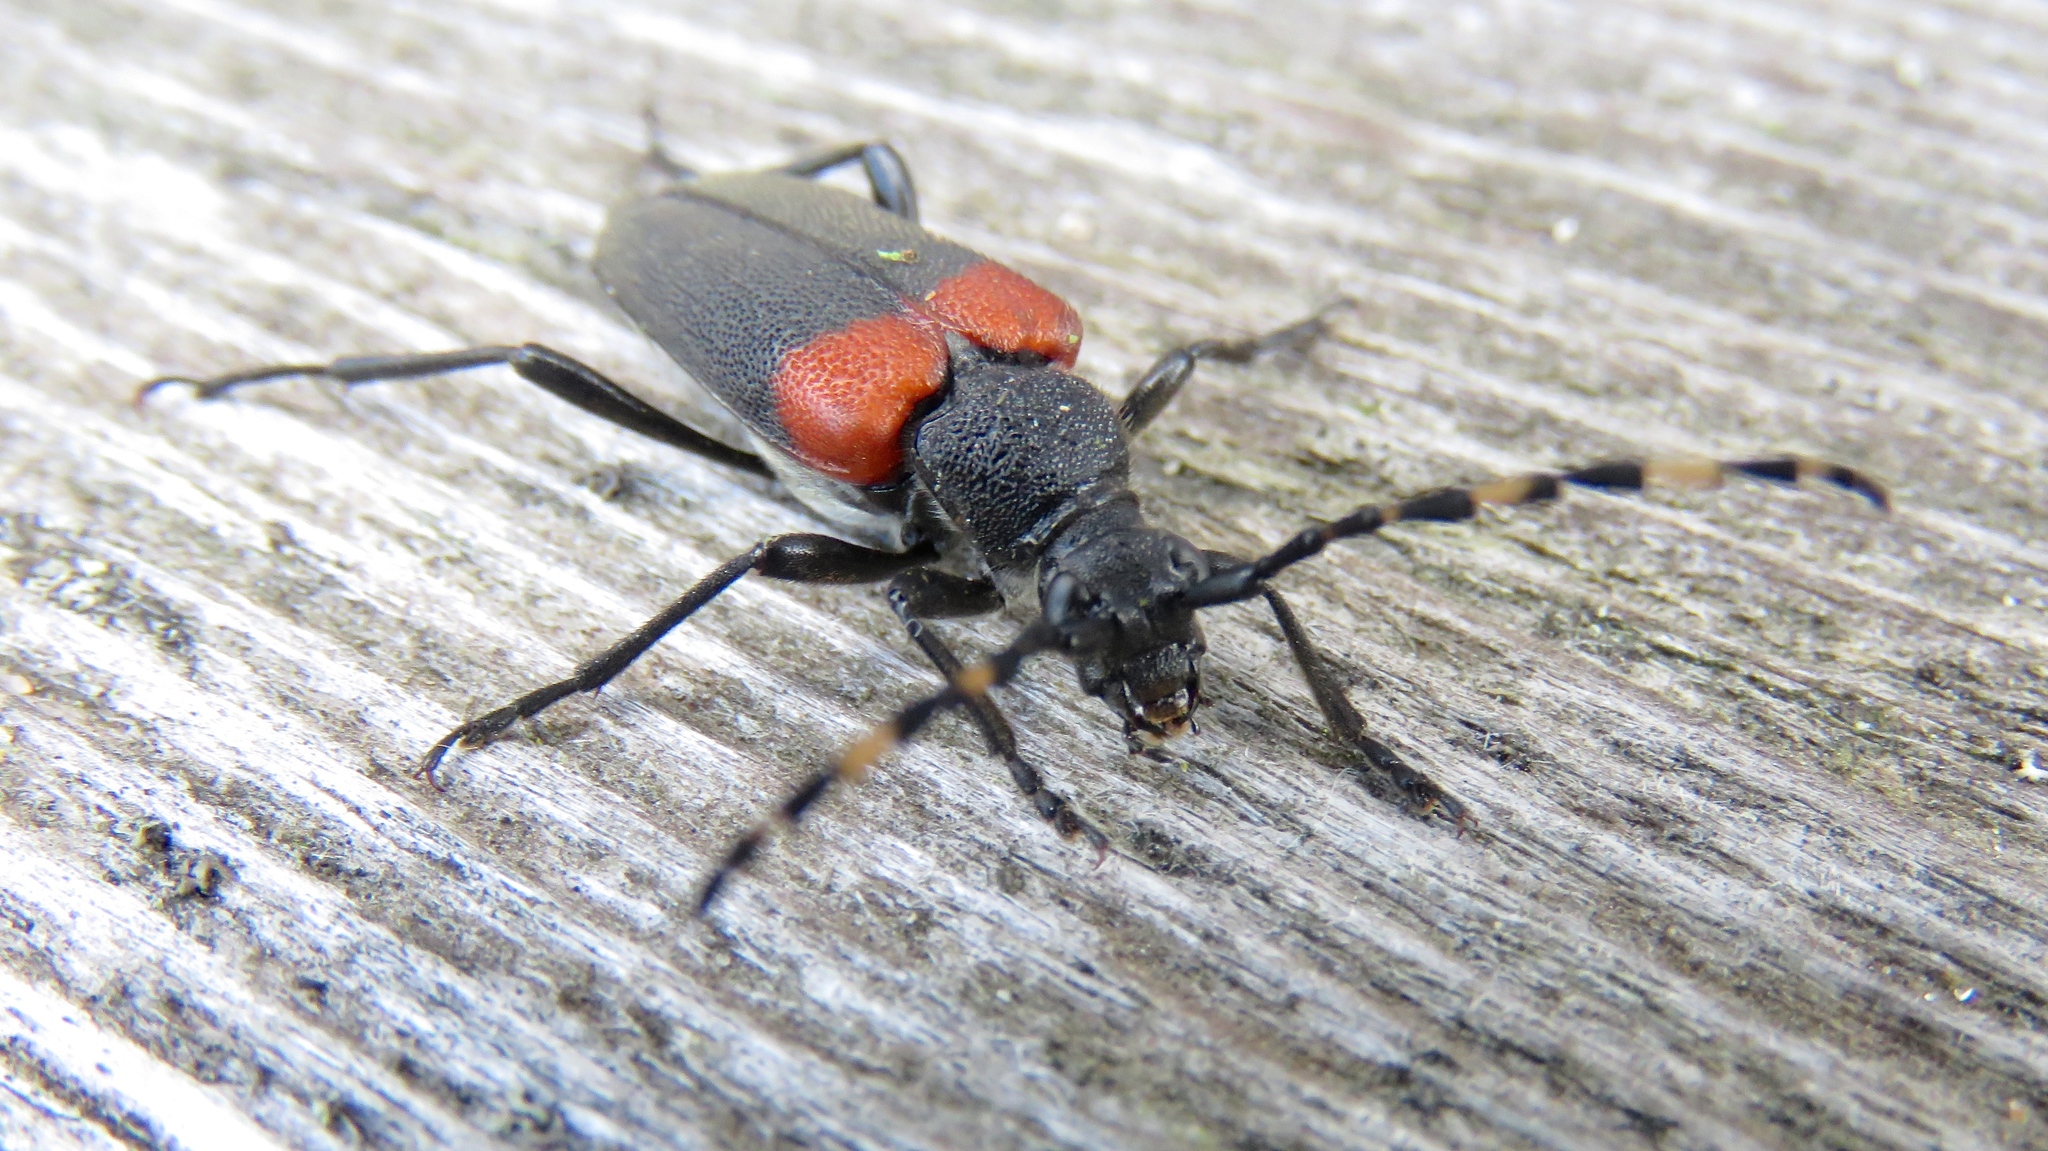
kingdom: Animalia
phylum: Arthropoda
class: Insecta
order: Coleoptera
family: Cerambycidae
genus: Stictoleptura
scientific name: Stictoleptura canadensis
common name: Red-shouldered pine borer
